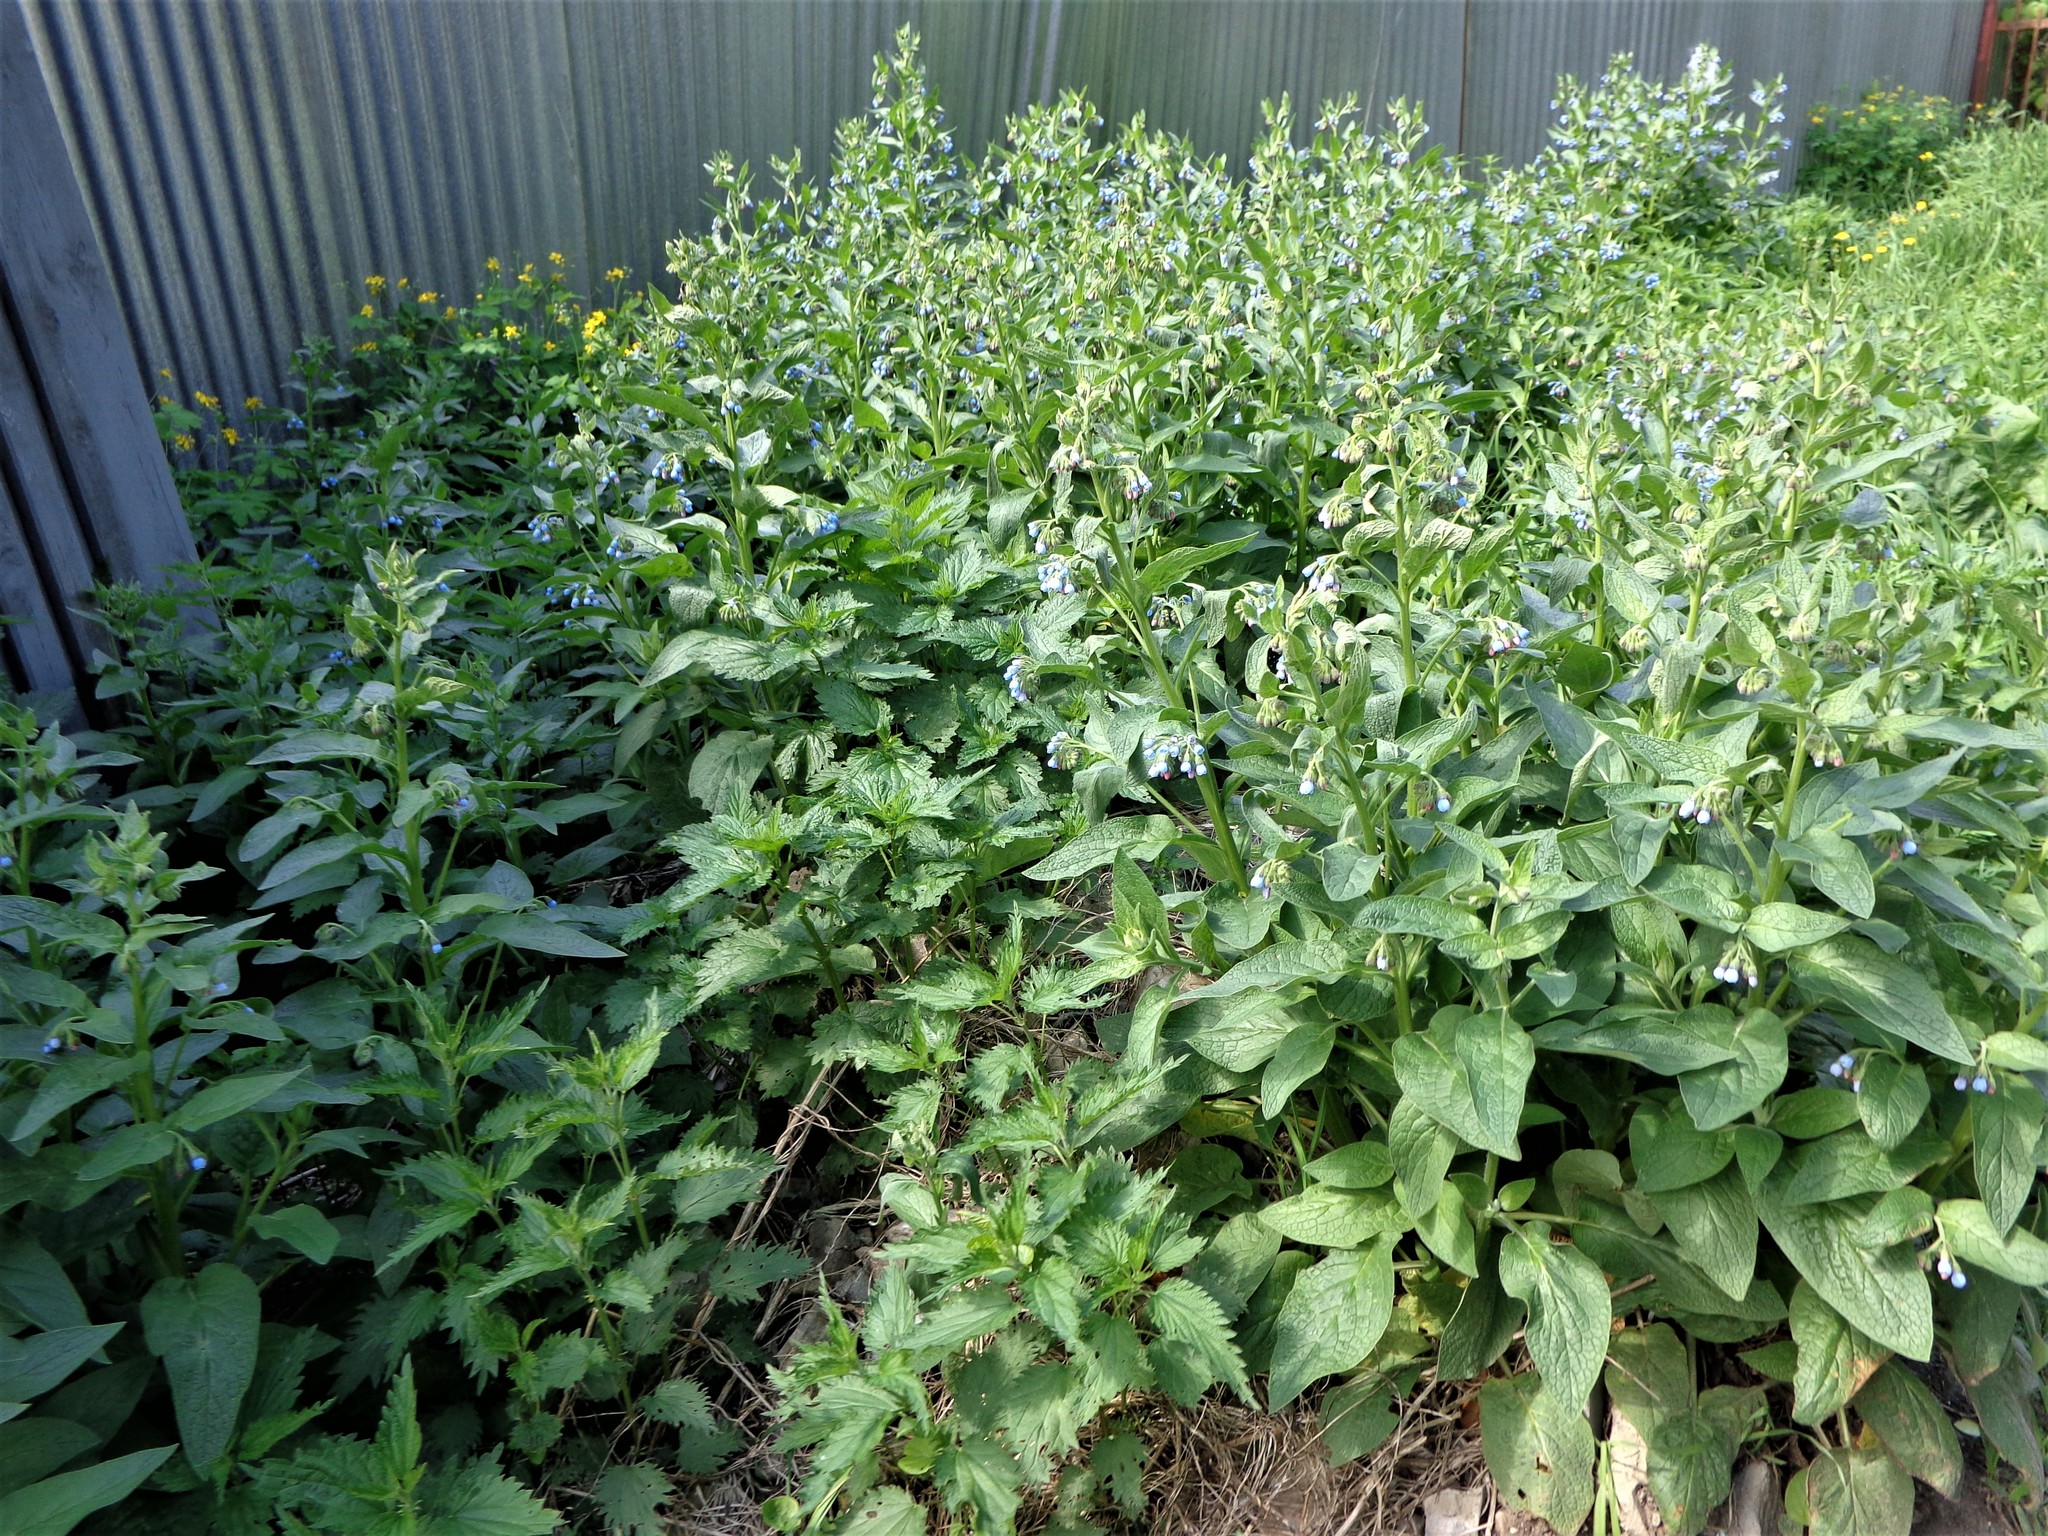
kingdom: Plantae
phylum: Tracheophyta
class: Magnoliopsida
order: Boraginales
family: Boraginaceae
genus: Symphytum
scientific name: Symphytum caucasicum
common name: Caucasian comfrey
